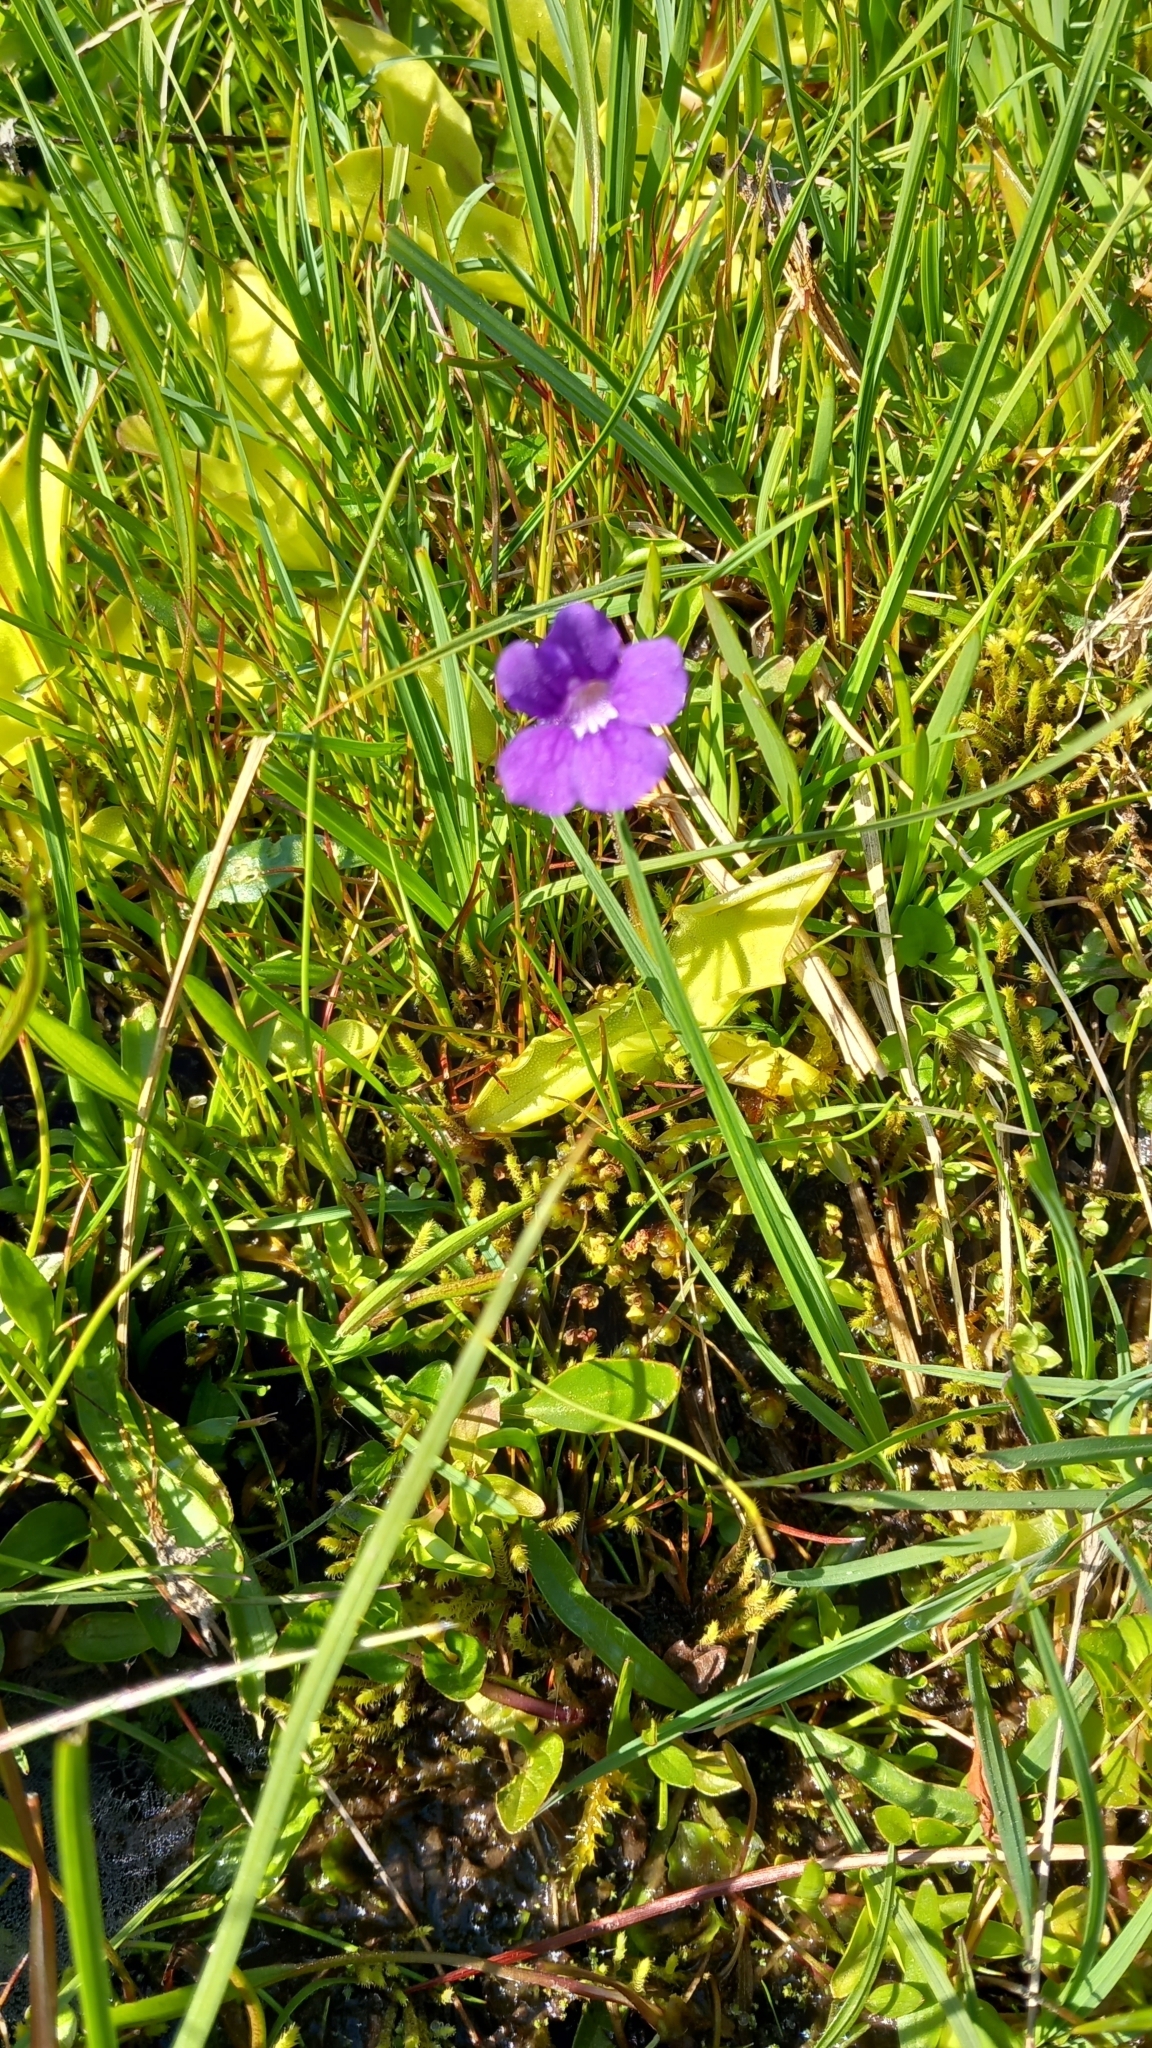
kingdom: Plantae
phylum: Tracheophyta
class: Magnoliopsida
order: Lamiales
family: Lentibulariaceae
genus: Pinguicula
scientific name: Pinguicula grandiflora
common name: Large-flowered butterwort
